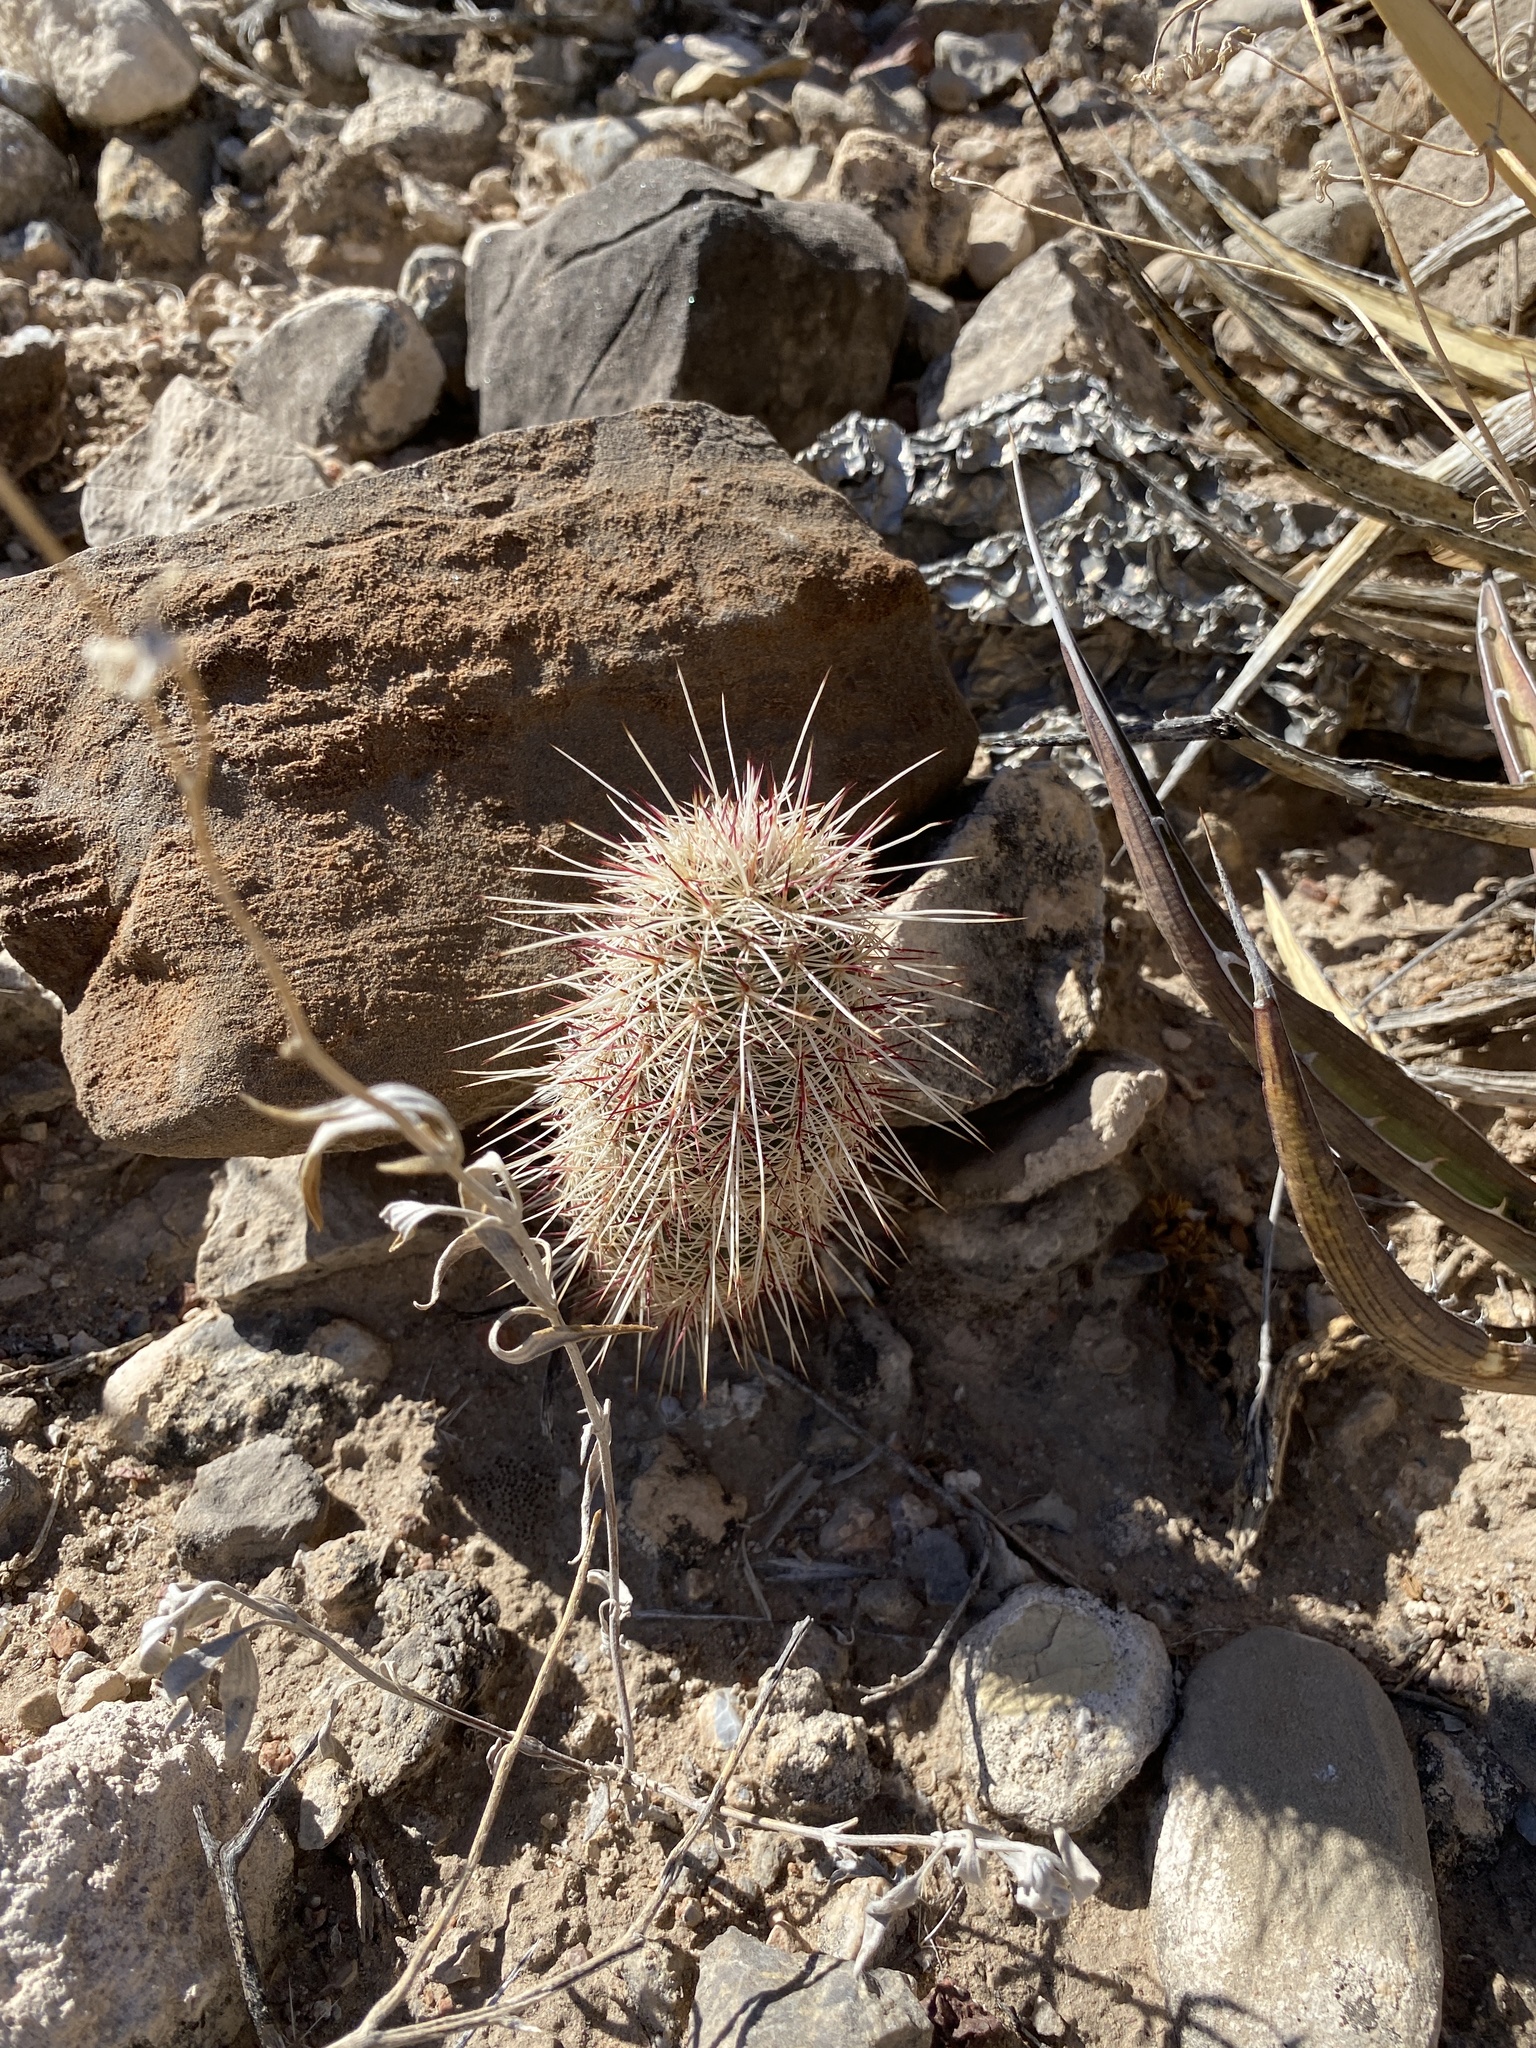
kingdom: Plantae
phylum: Tracheophyta
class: Magnoliopsida
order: Caryophyllales
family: Cactaceae
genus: Echinocereus
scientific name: Echinocereus viridiflorus
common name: Nylon hedgehog cactus
